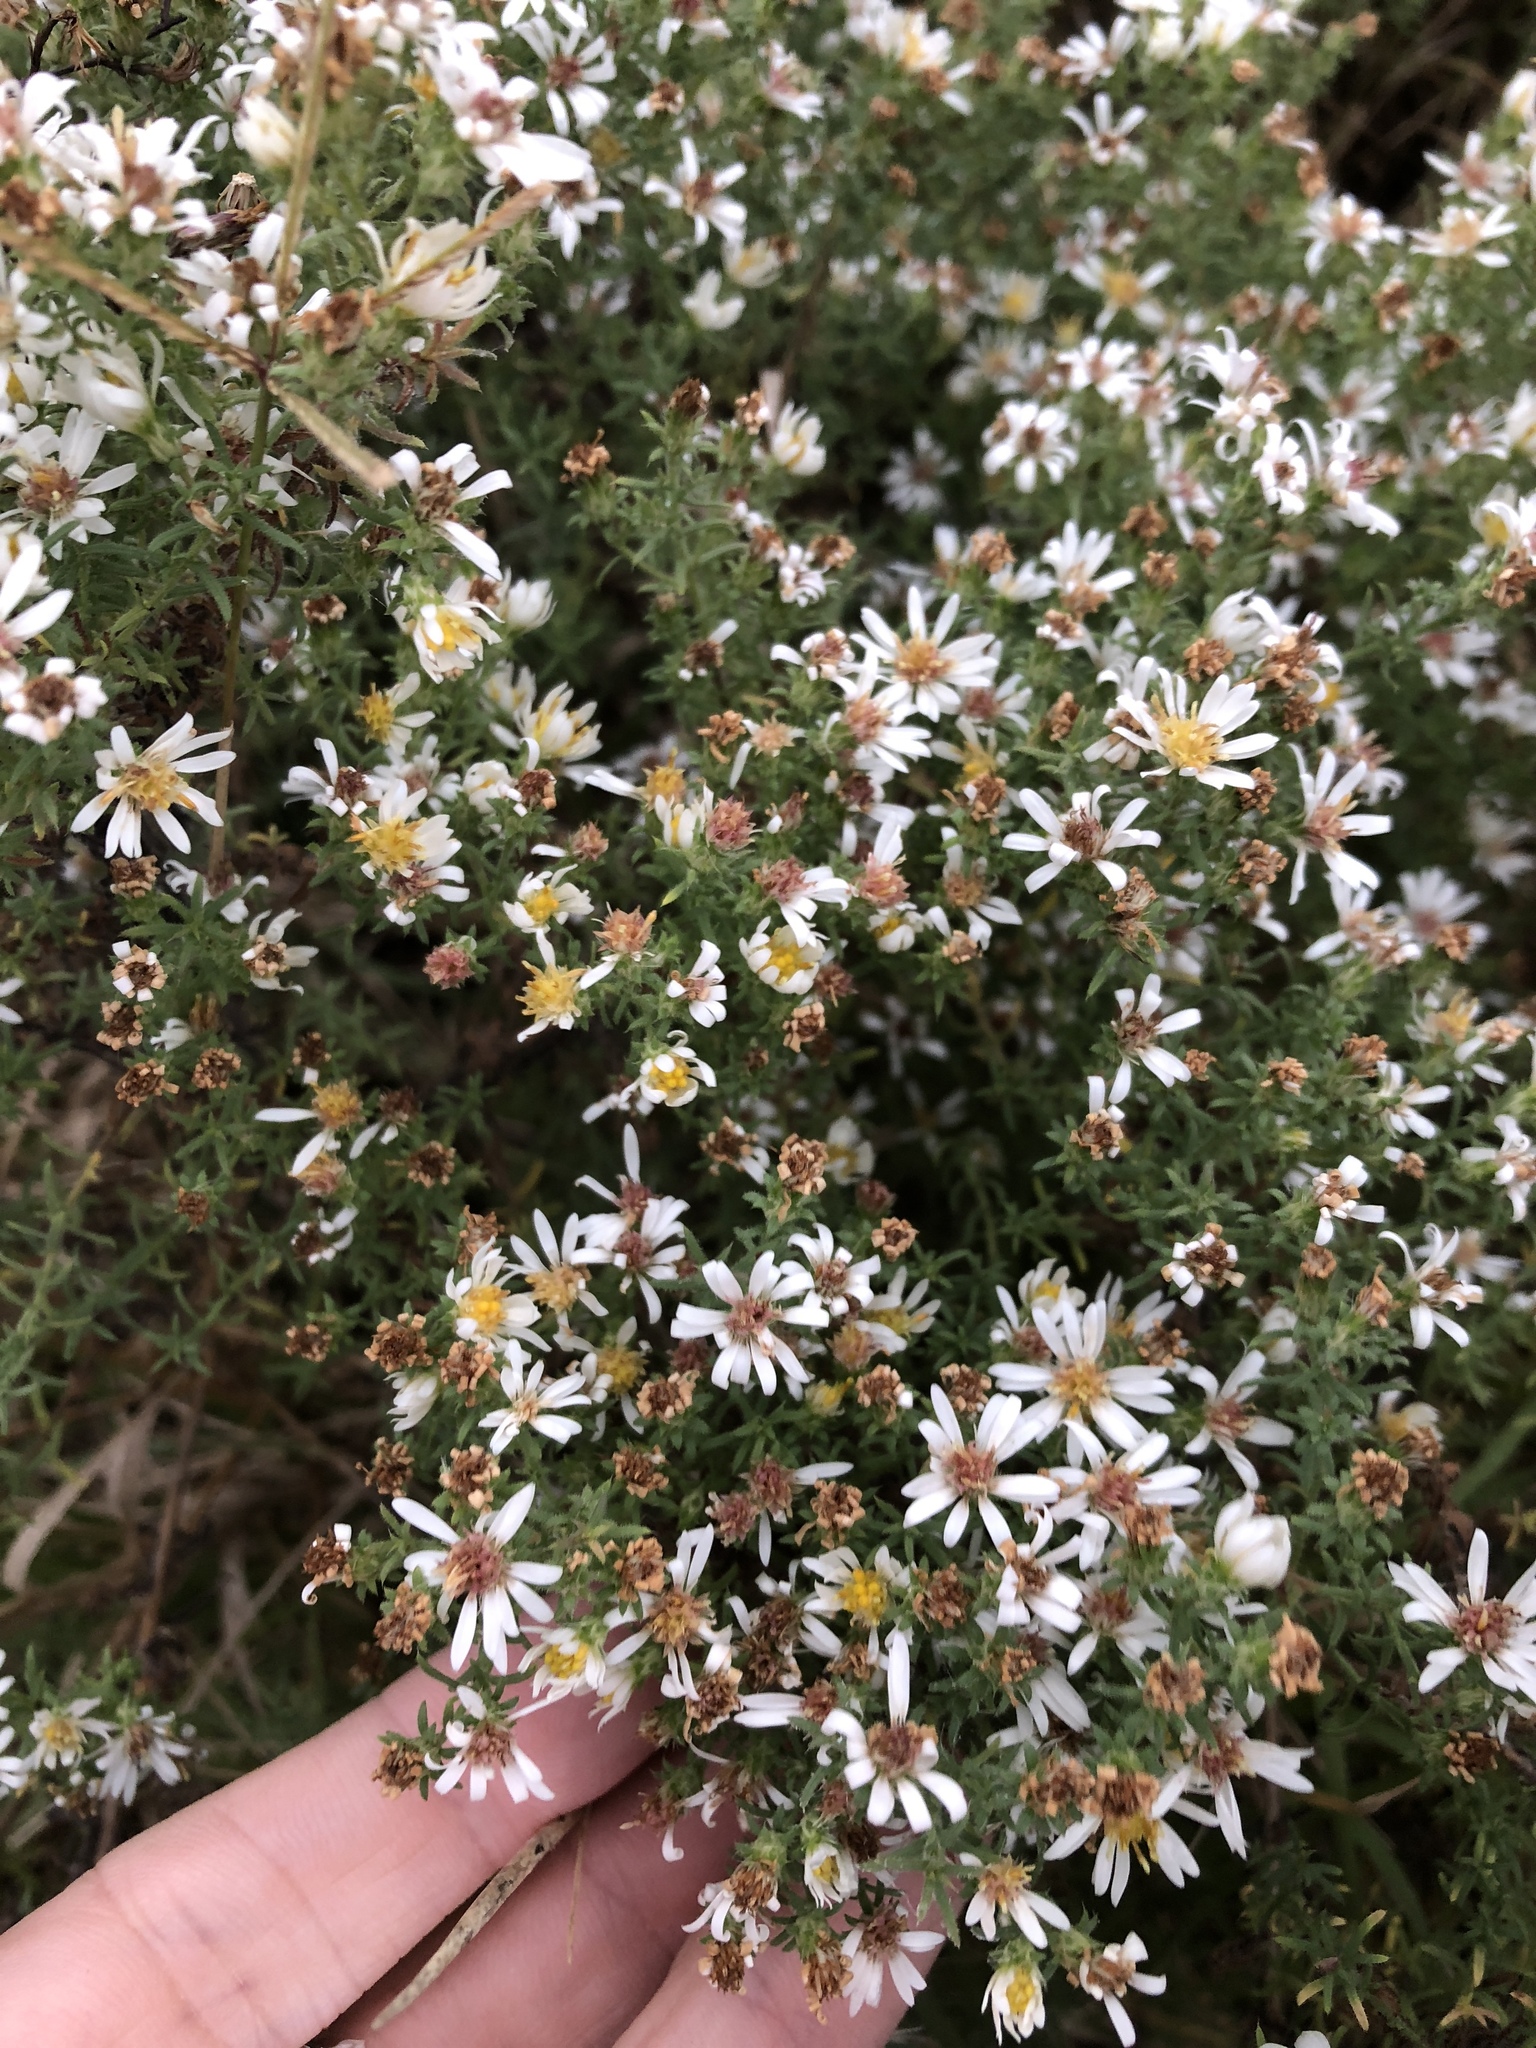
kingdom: Plantae
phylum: Tracheophyta
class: Magnoliopsida
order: Asterales
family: Asteraceae
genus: Symphyotrichum
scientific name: Symphyotrichum ericoides
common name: Heath aster
